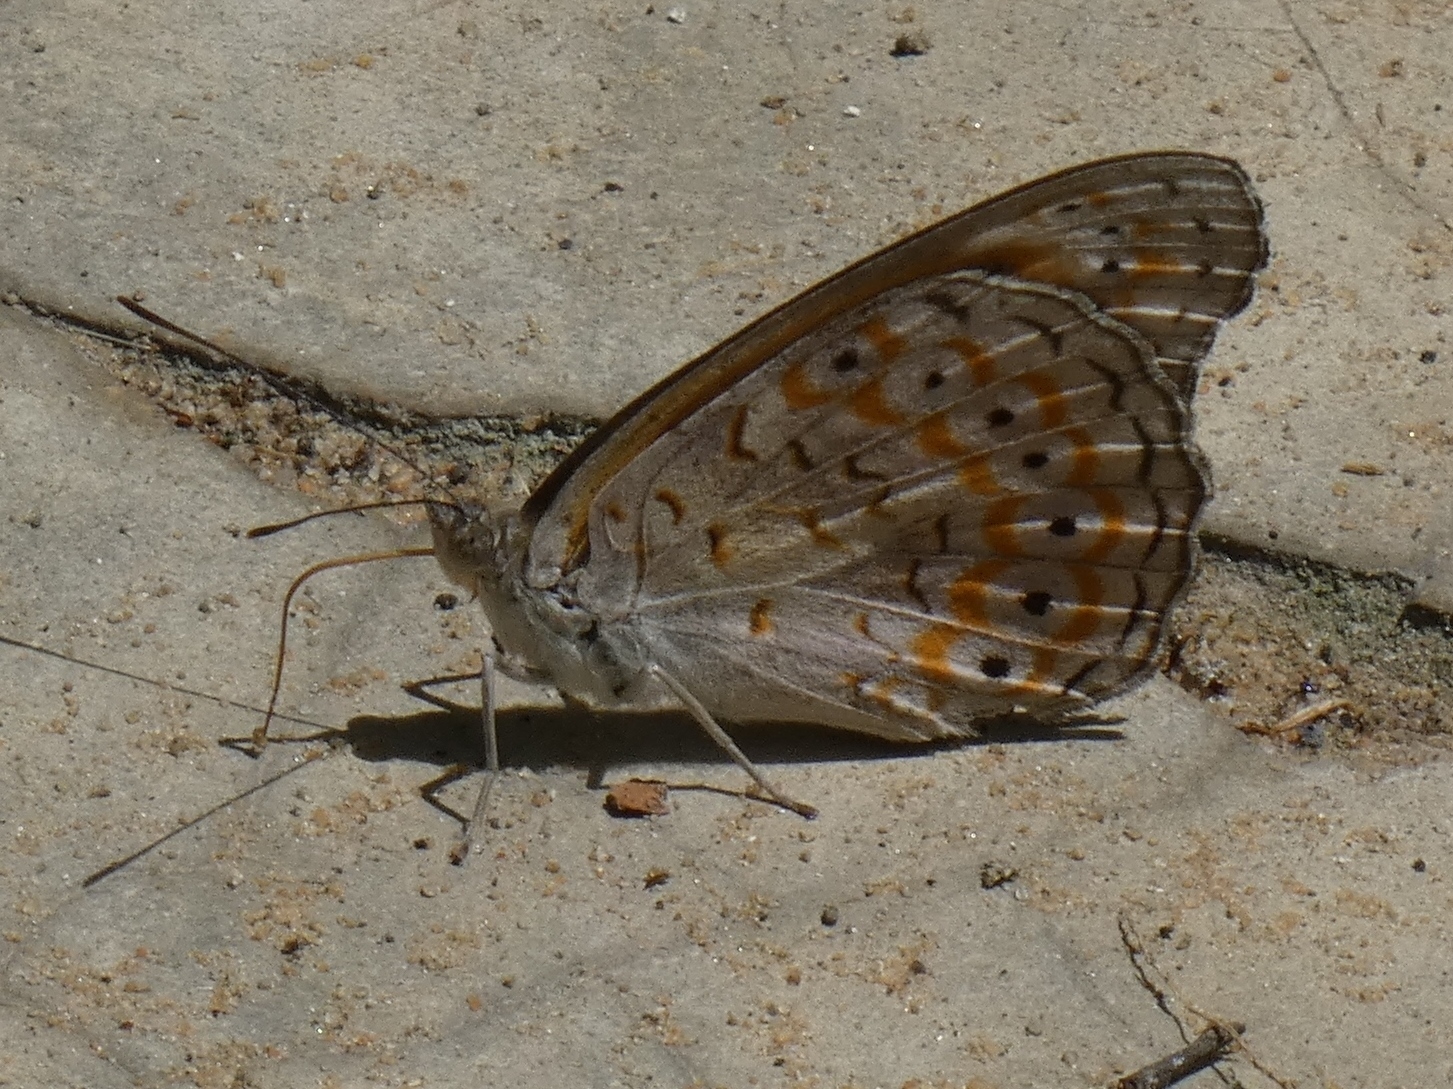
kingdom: Animalia
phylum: Arthropoda
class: Insecta
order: Lepidoptera
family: Nymphalidae
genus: Sevenia
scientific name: Sevenia
